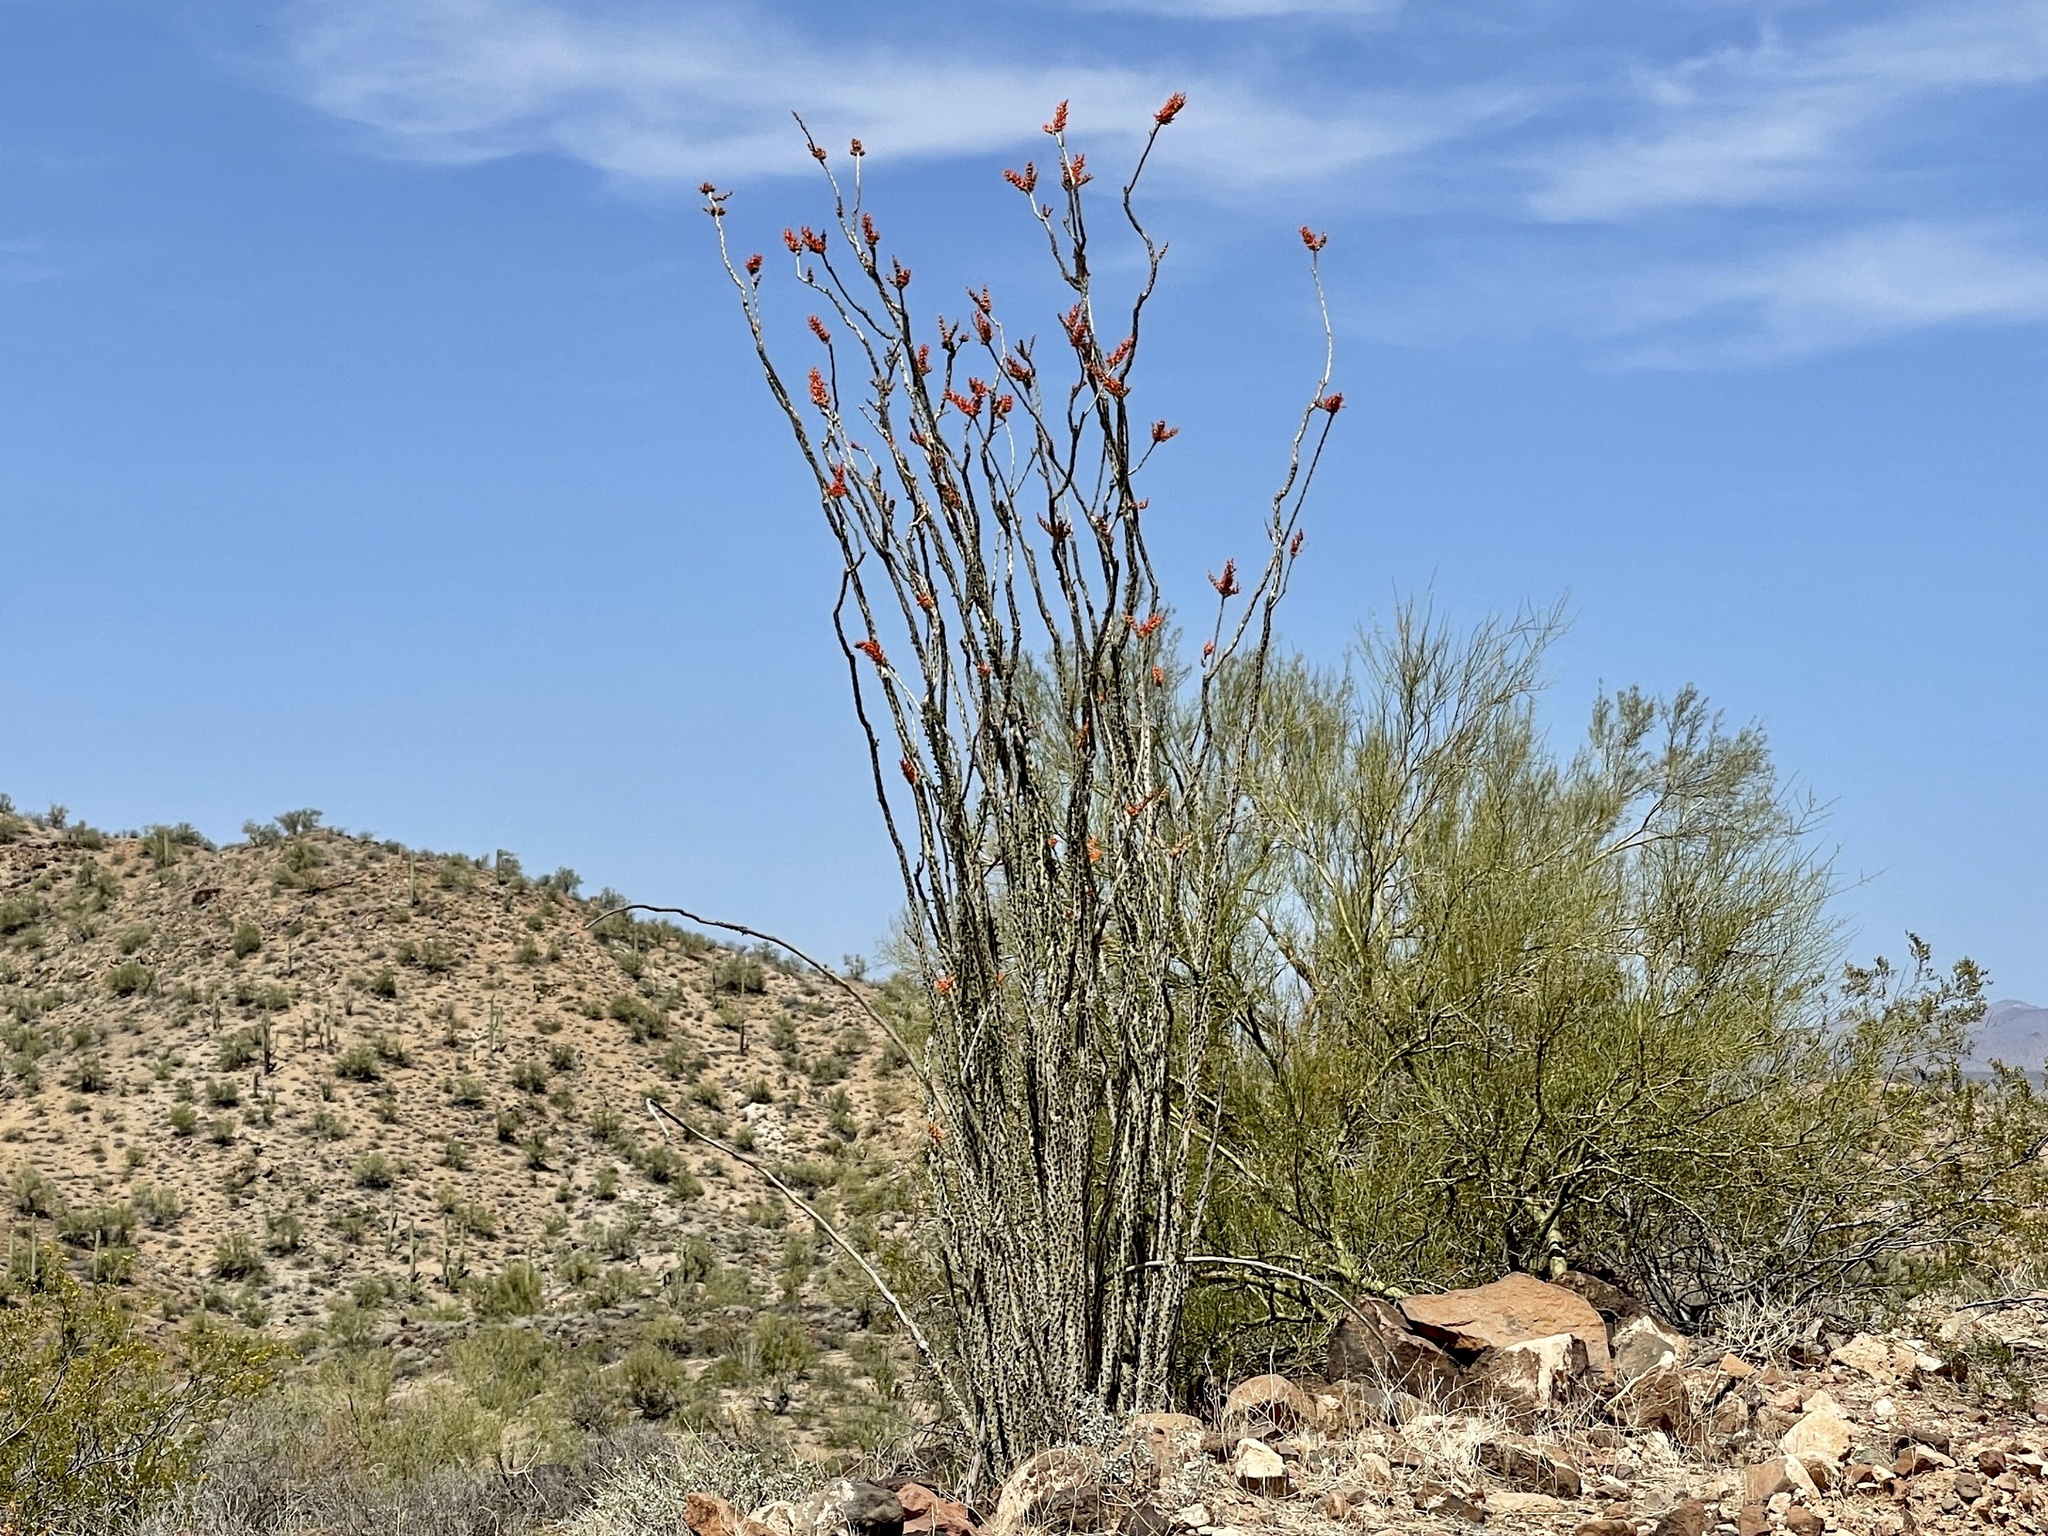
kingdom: Plantae
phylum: Tracheophyta
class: Magnoliopsida
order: Ericales
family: Fouquieriaceae
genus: Fouquieria
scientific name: Fouquieria splendens
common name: Vine-cactus
